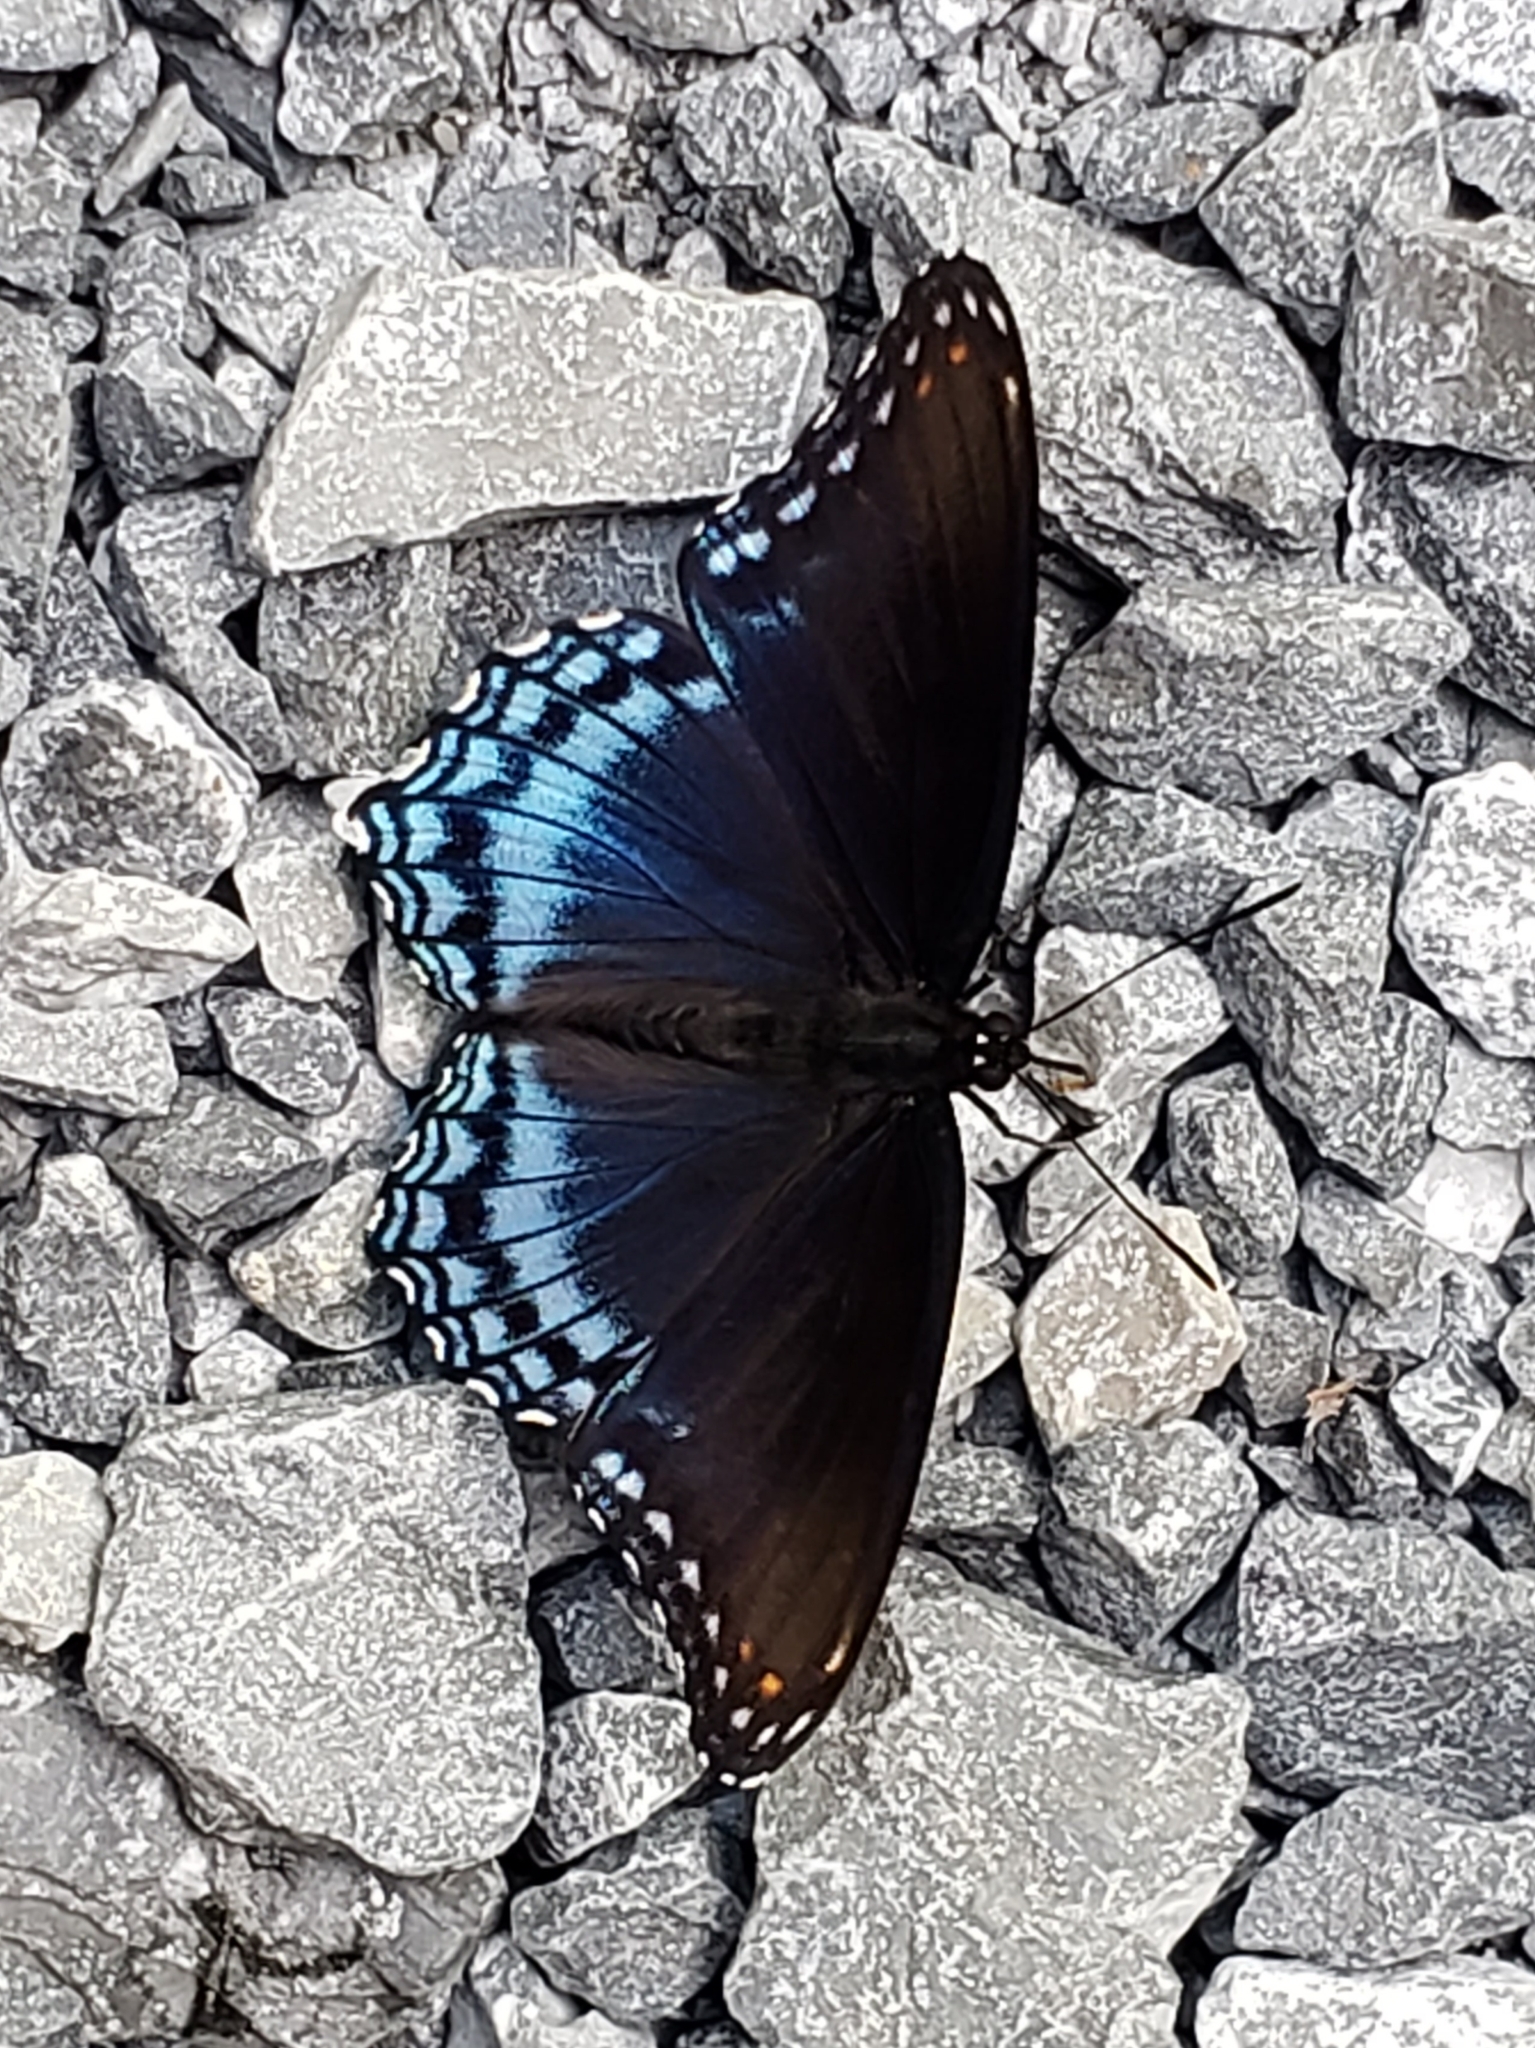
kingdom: Animalia
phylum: Arthropoda
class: Insecta
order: Lepidoptera
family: Nymphalidae
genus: Limenitis
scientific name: Limenitis astyanax
